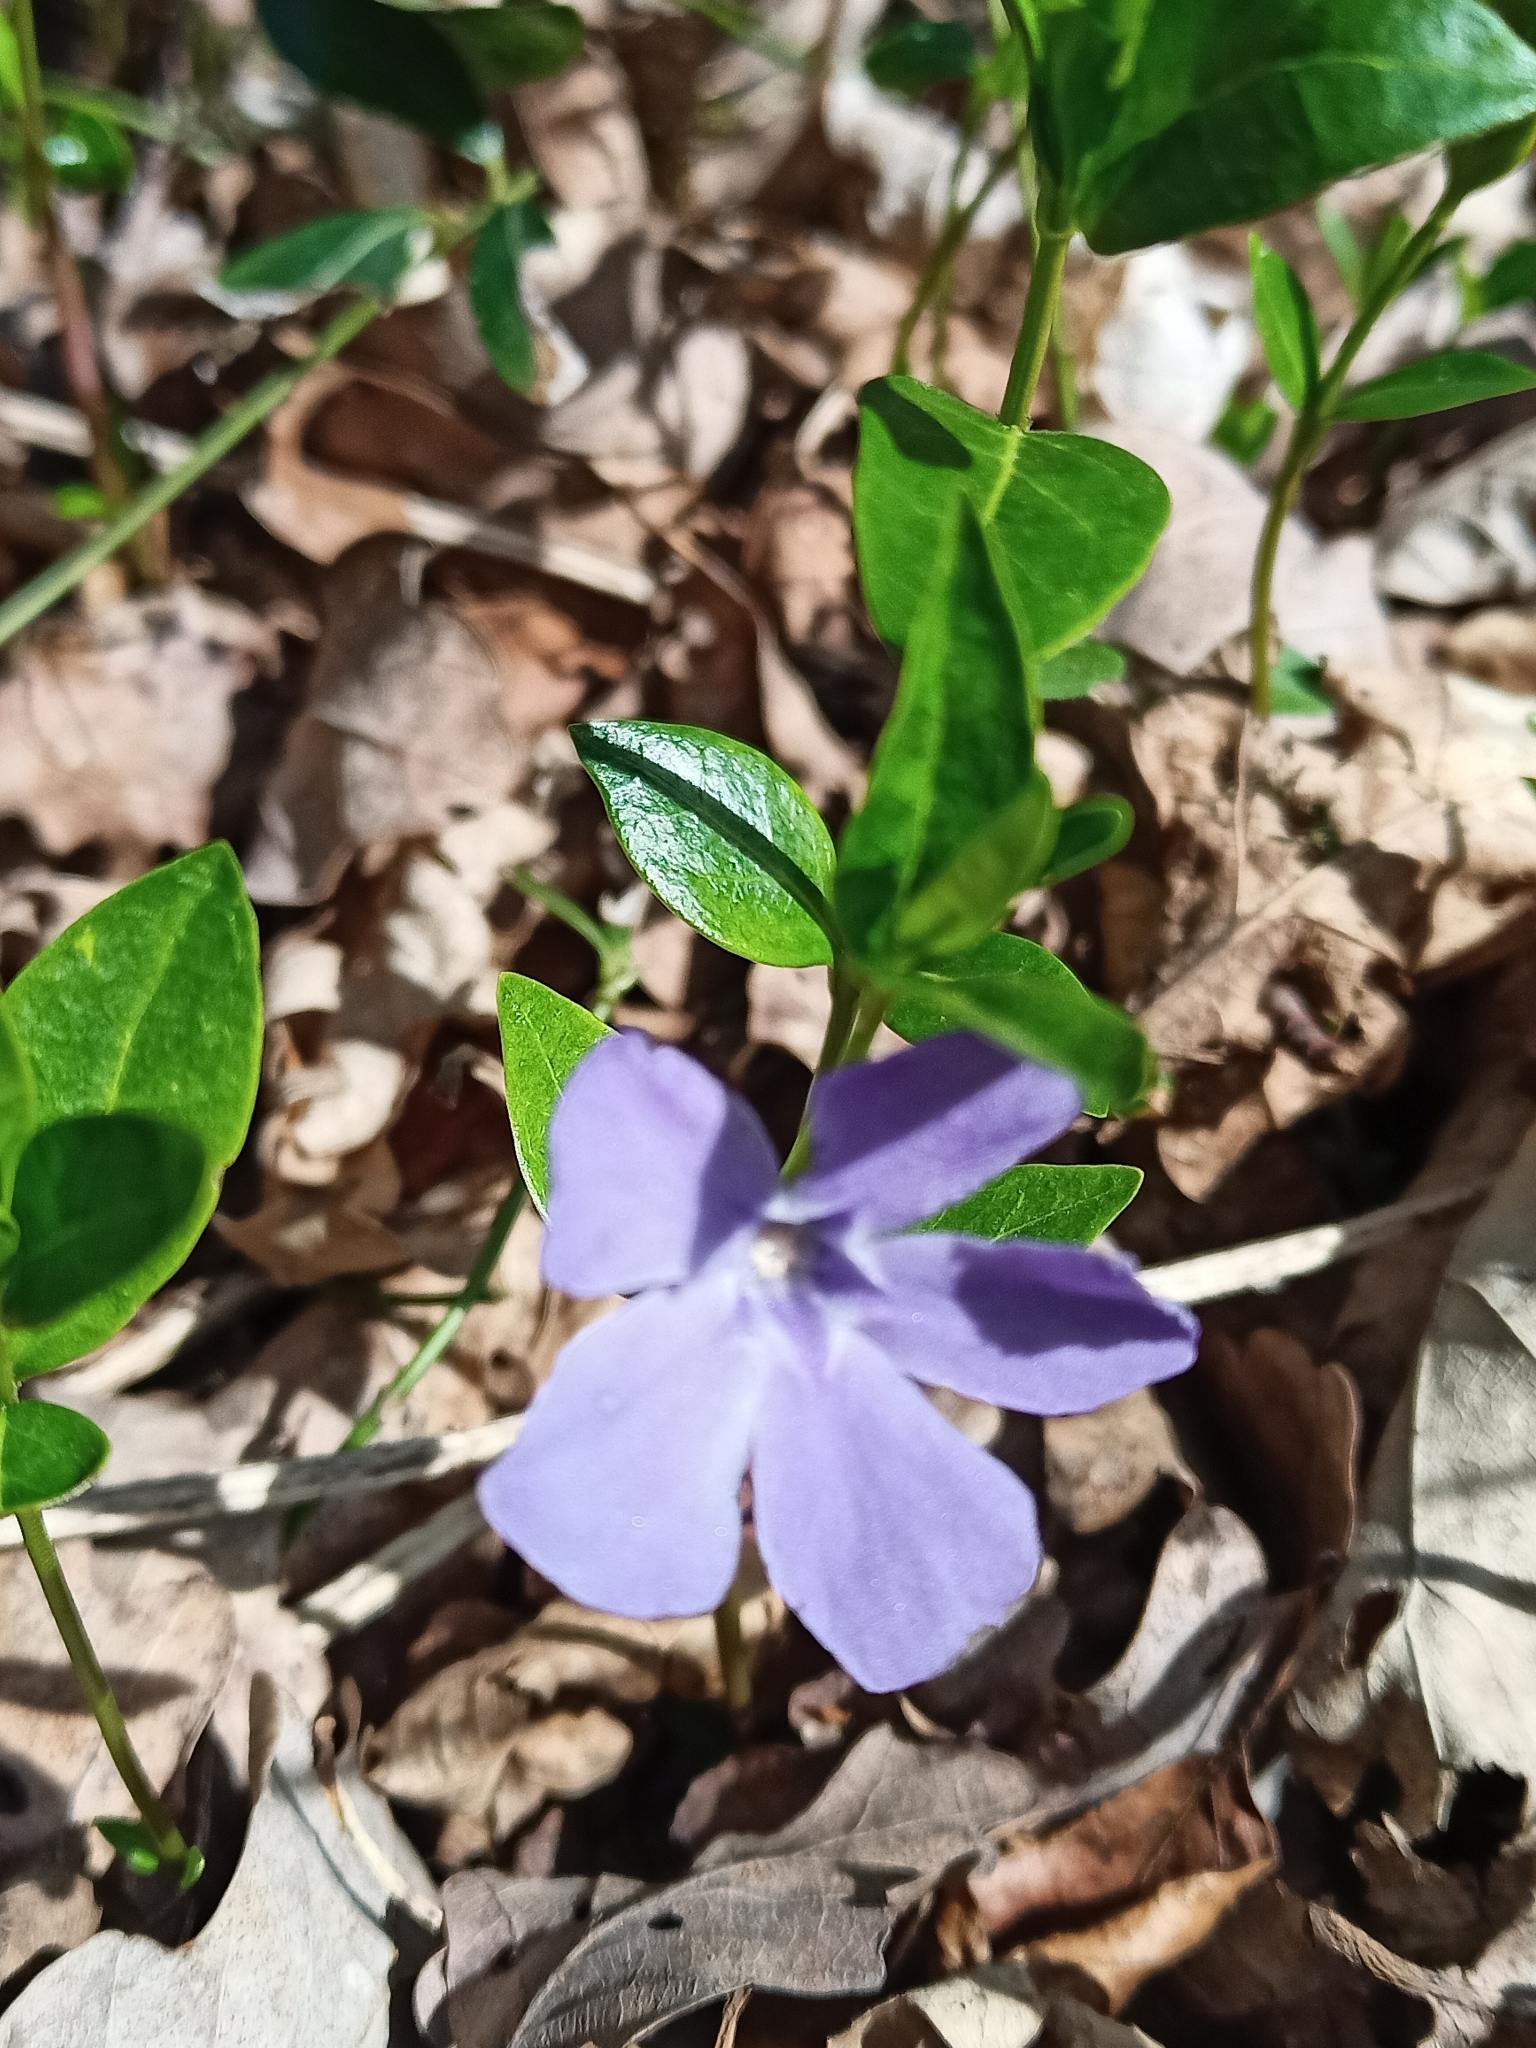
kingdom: Plantae
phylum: Tracheophyta
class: Magnoliopsida
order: Gentianales
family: Apocynaceae
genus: Vinca
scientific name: Vinca minor
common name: Lesser periwinkle
